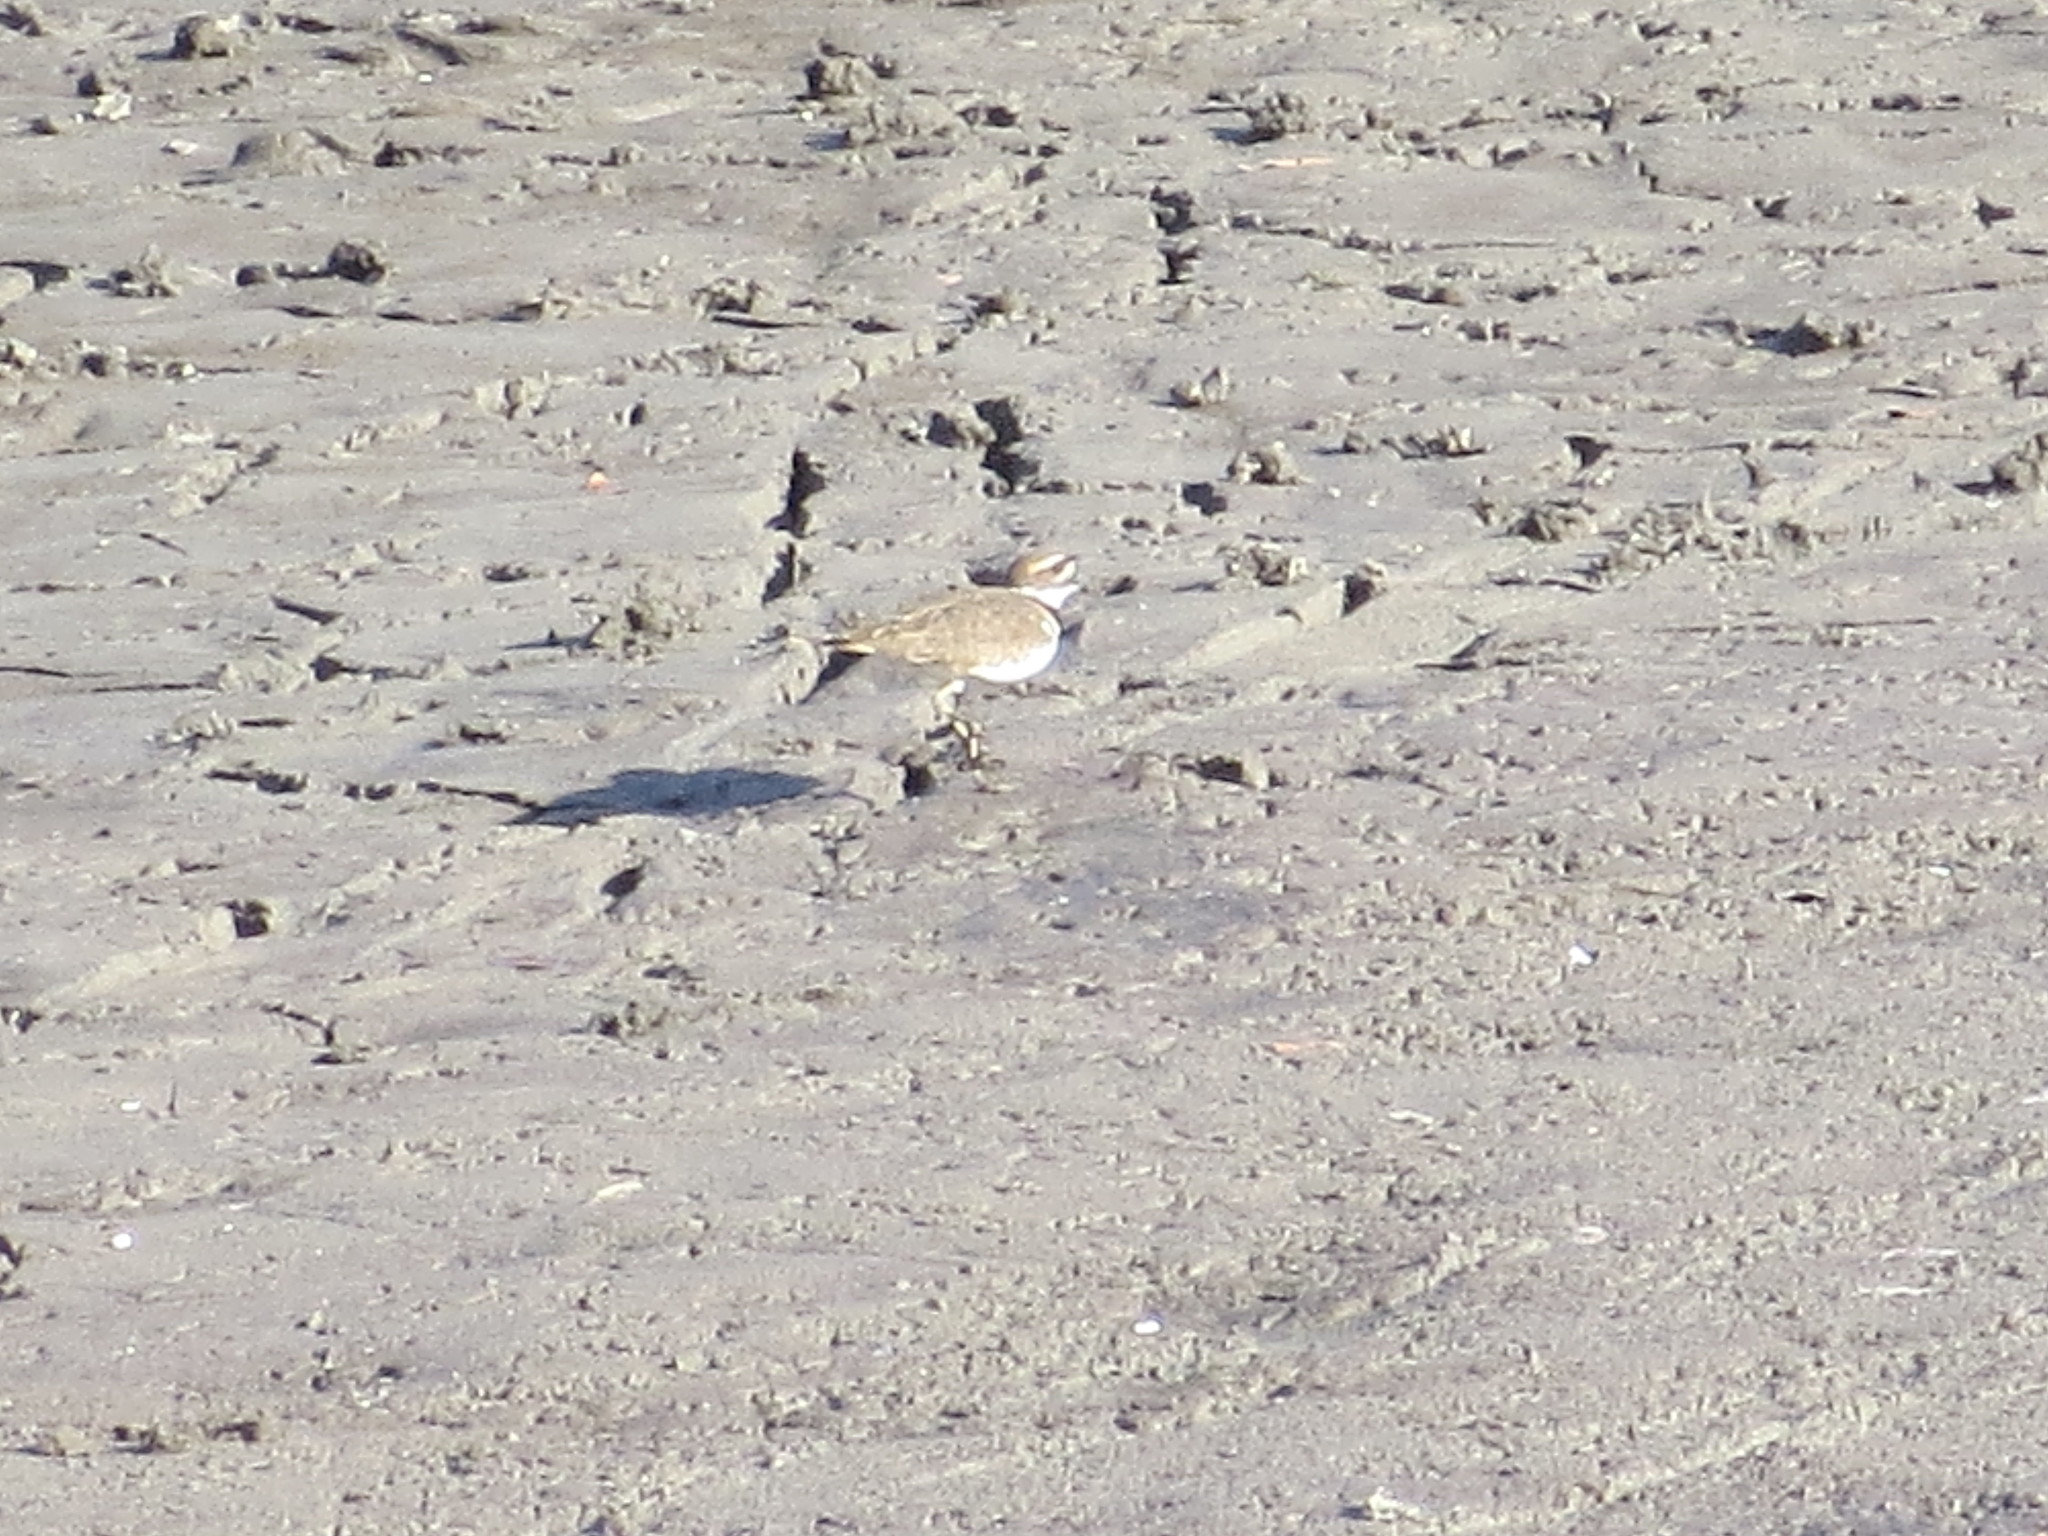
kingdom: Animalia
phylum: Chordata
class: Aves
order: Charadriiformes
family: Charadriidae
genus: Charadrius
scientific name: Charadrius vociferus
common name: Killdeer
